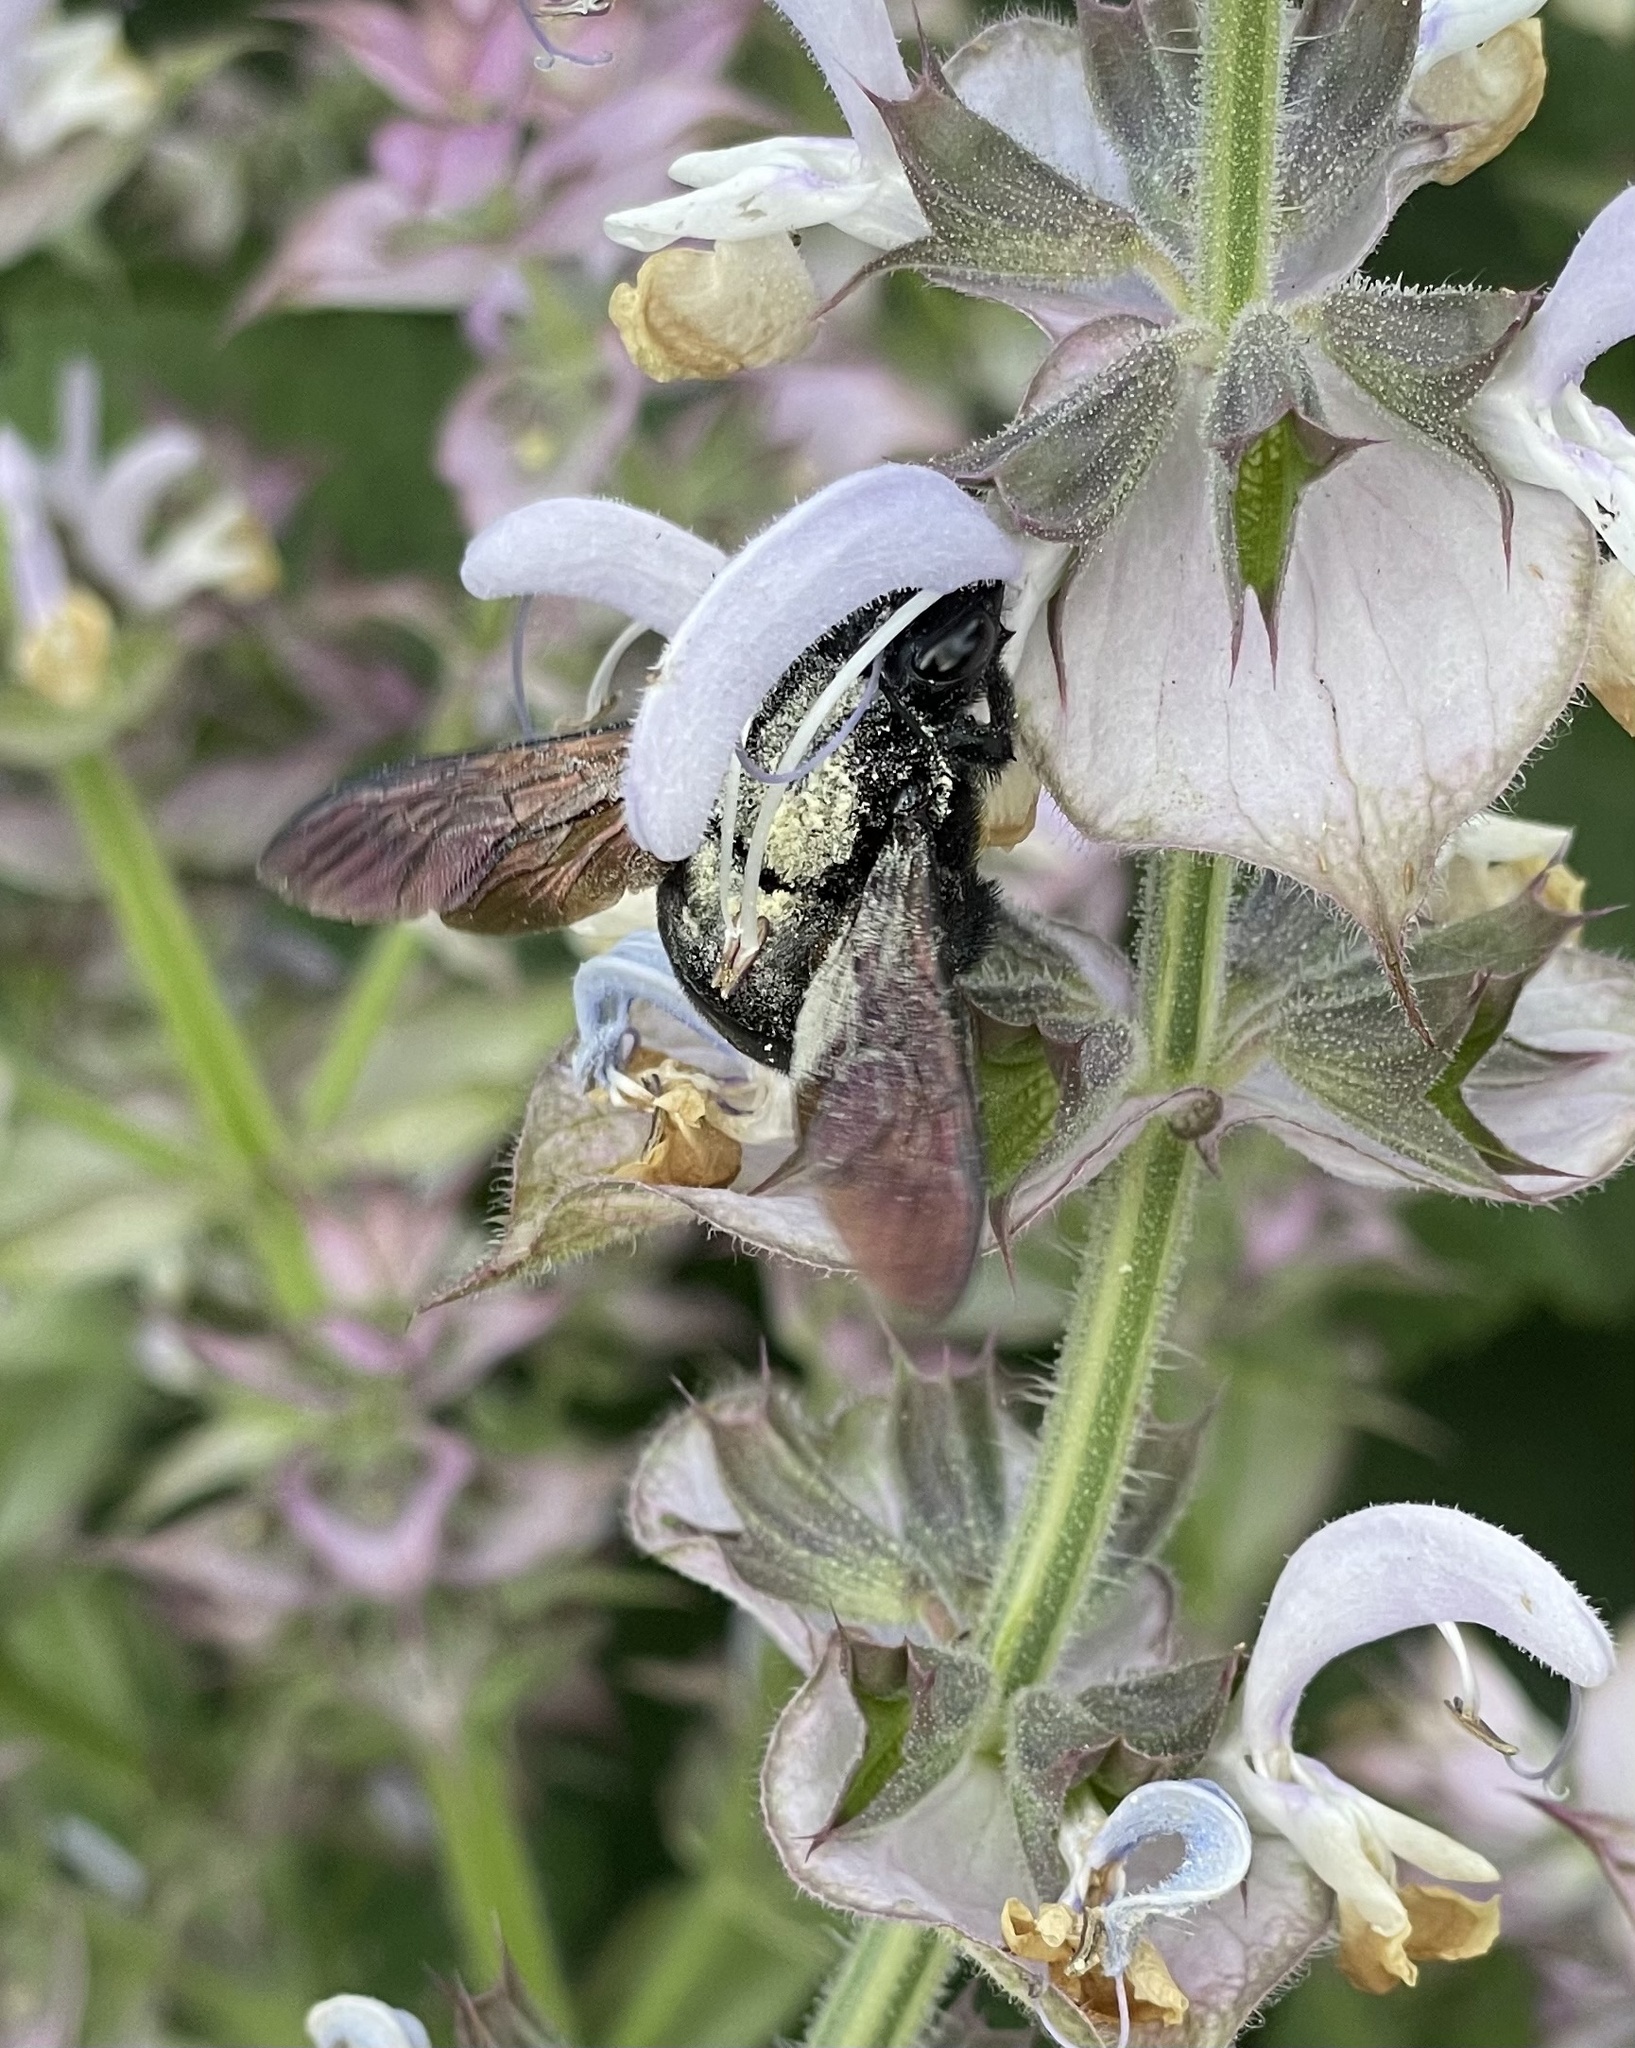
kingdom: Animalia
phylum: Arthropoda
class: Insecta
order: Hymenoptera
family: Apidae
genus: Xylocopa
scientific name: Xylocopa sonorina
